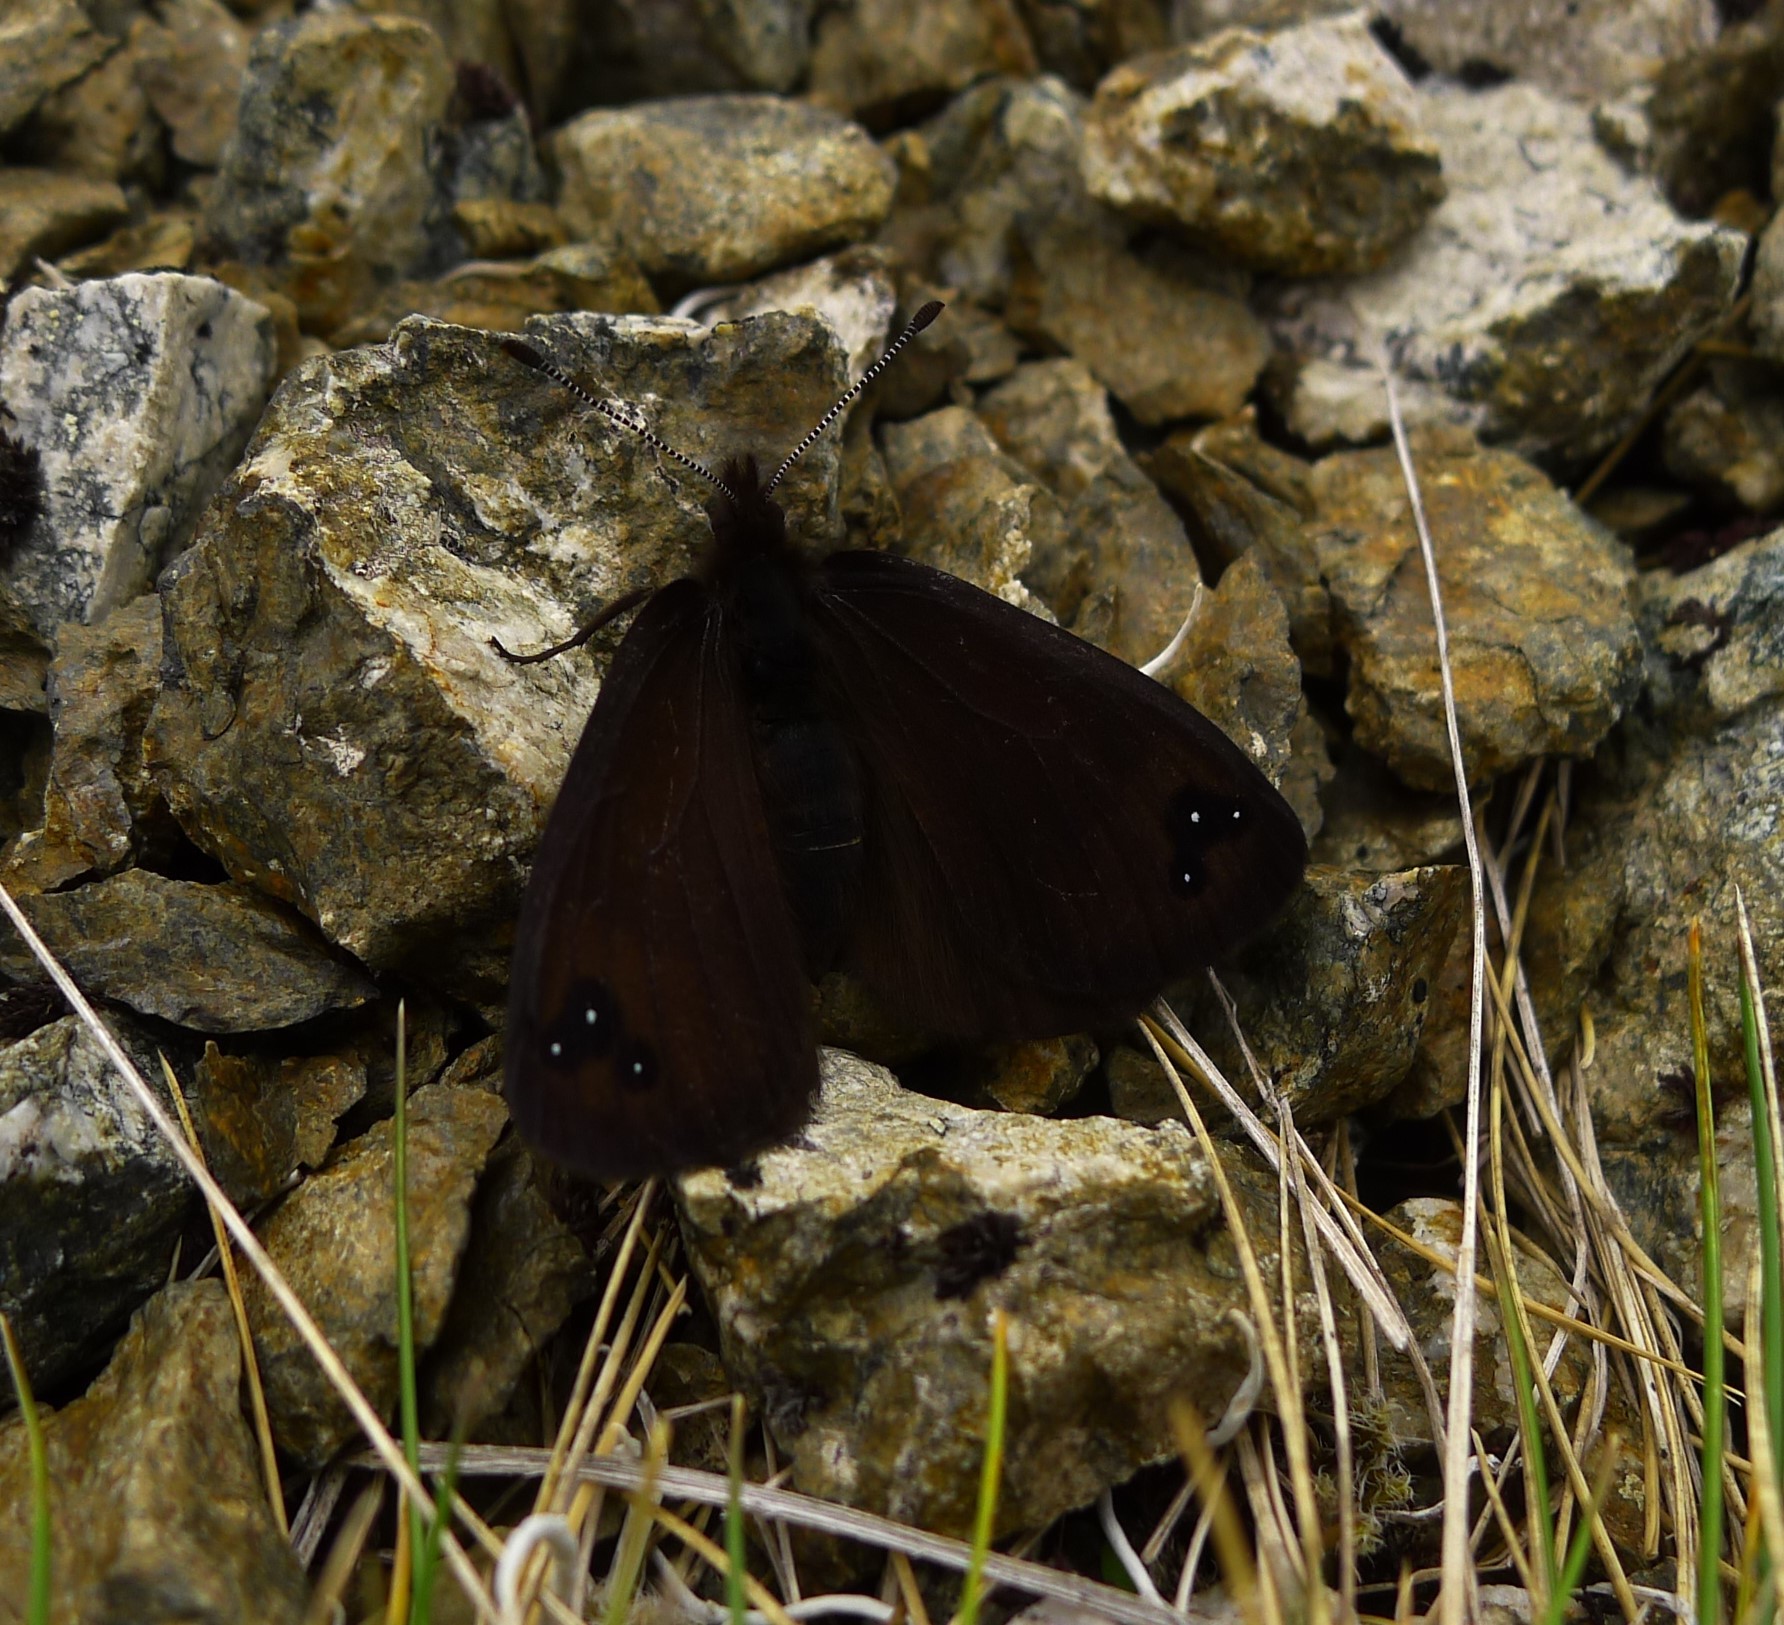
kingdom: Animalia
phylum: Arthropoda
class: Insecta
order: Lepidoptera
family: Nymphalidae
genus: Erebia
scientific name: Erebia Percnodaimon merula
